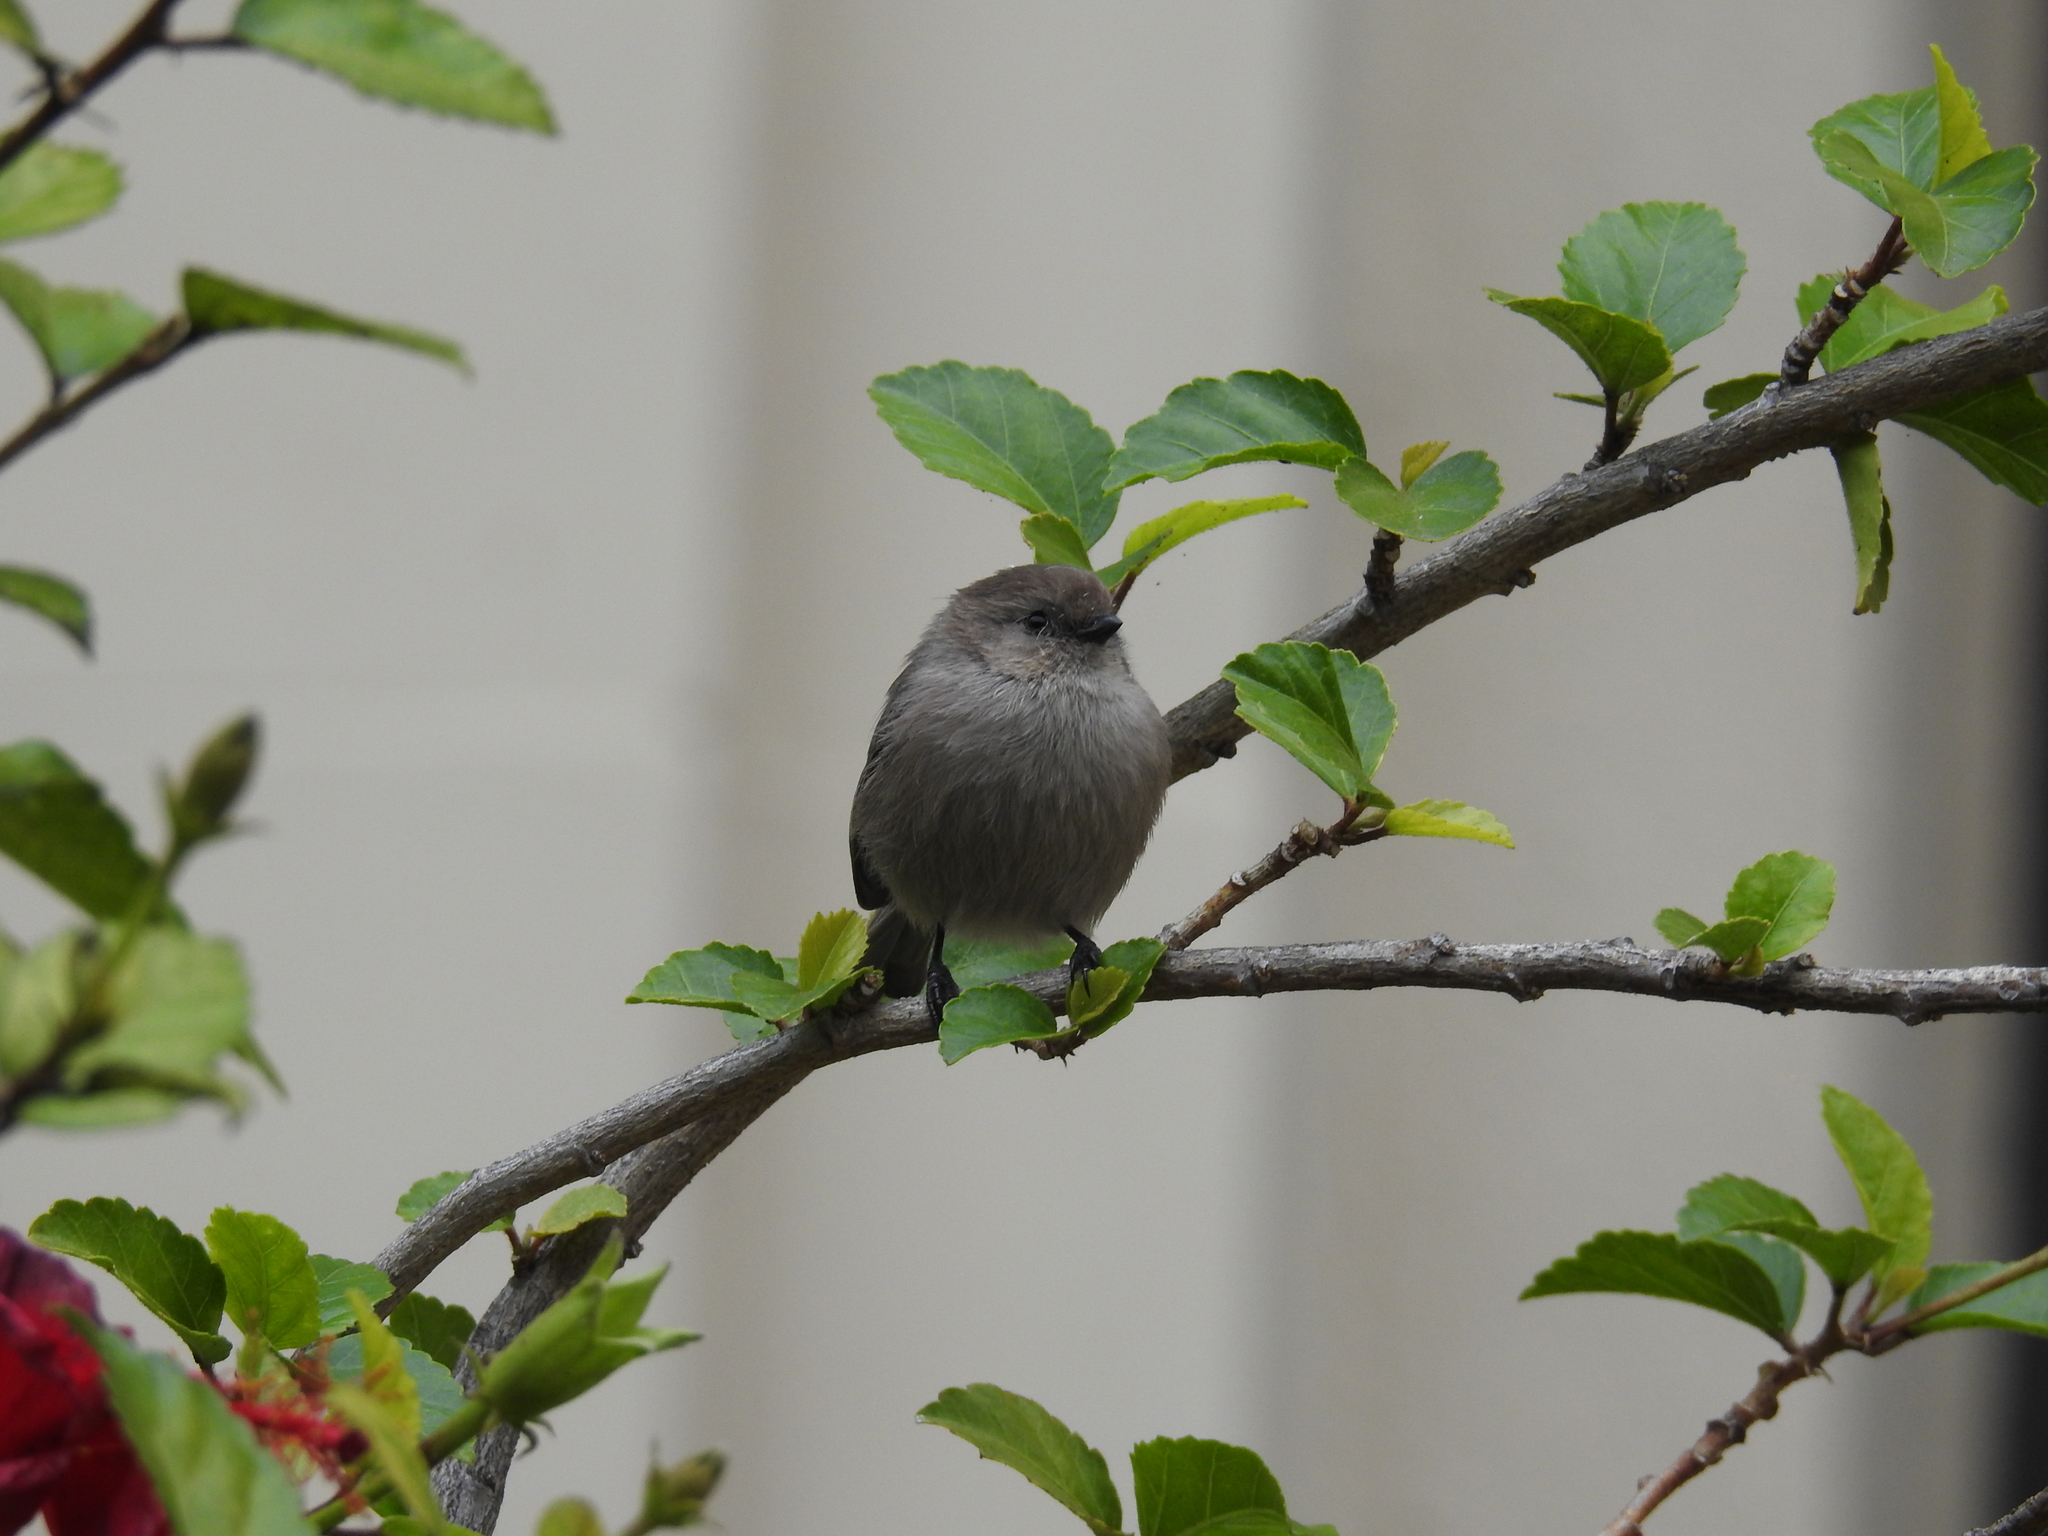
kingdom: Animalia
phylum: Chordata
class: Aves
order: Passeriformes
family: Aegithalidae
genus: Psaltriparus
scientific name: Psaltriparus minimus
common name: American bushtit
